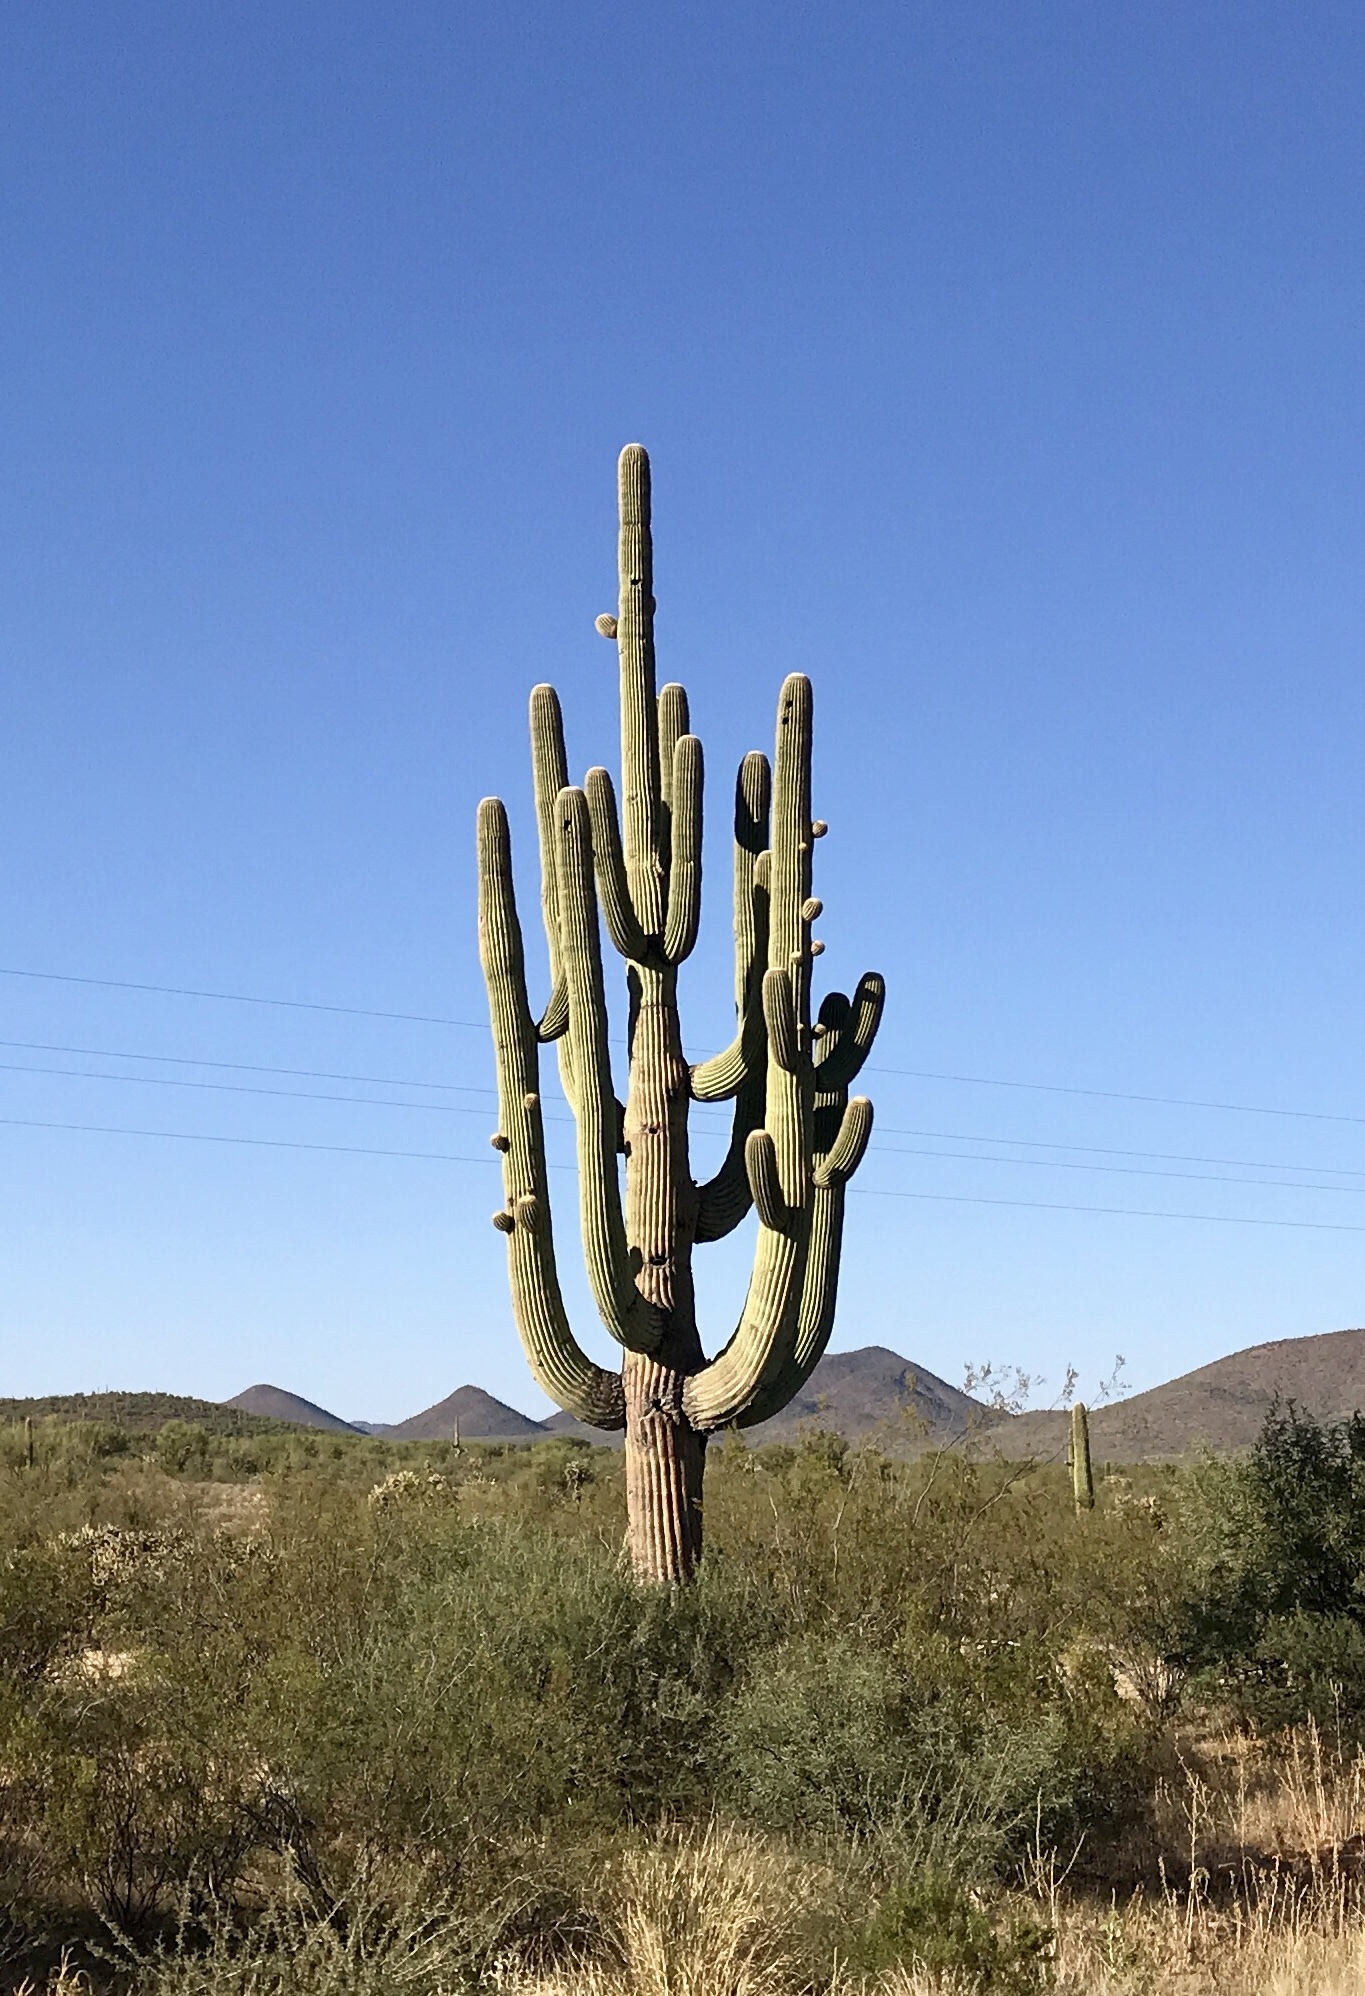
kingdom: Plantae
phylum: Tracheophyta
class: Magnoliopsida
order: Caryophyllales
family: Cactaceae
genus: Carnegiea
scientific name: Carnegiea gigantea
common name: Saguaro
